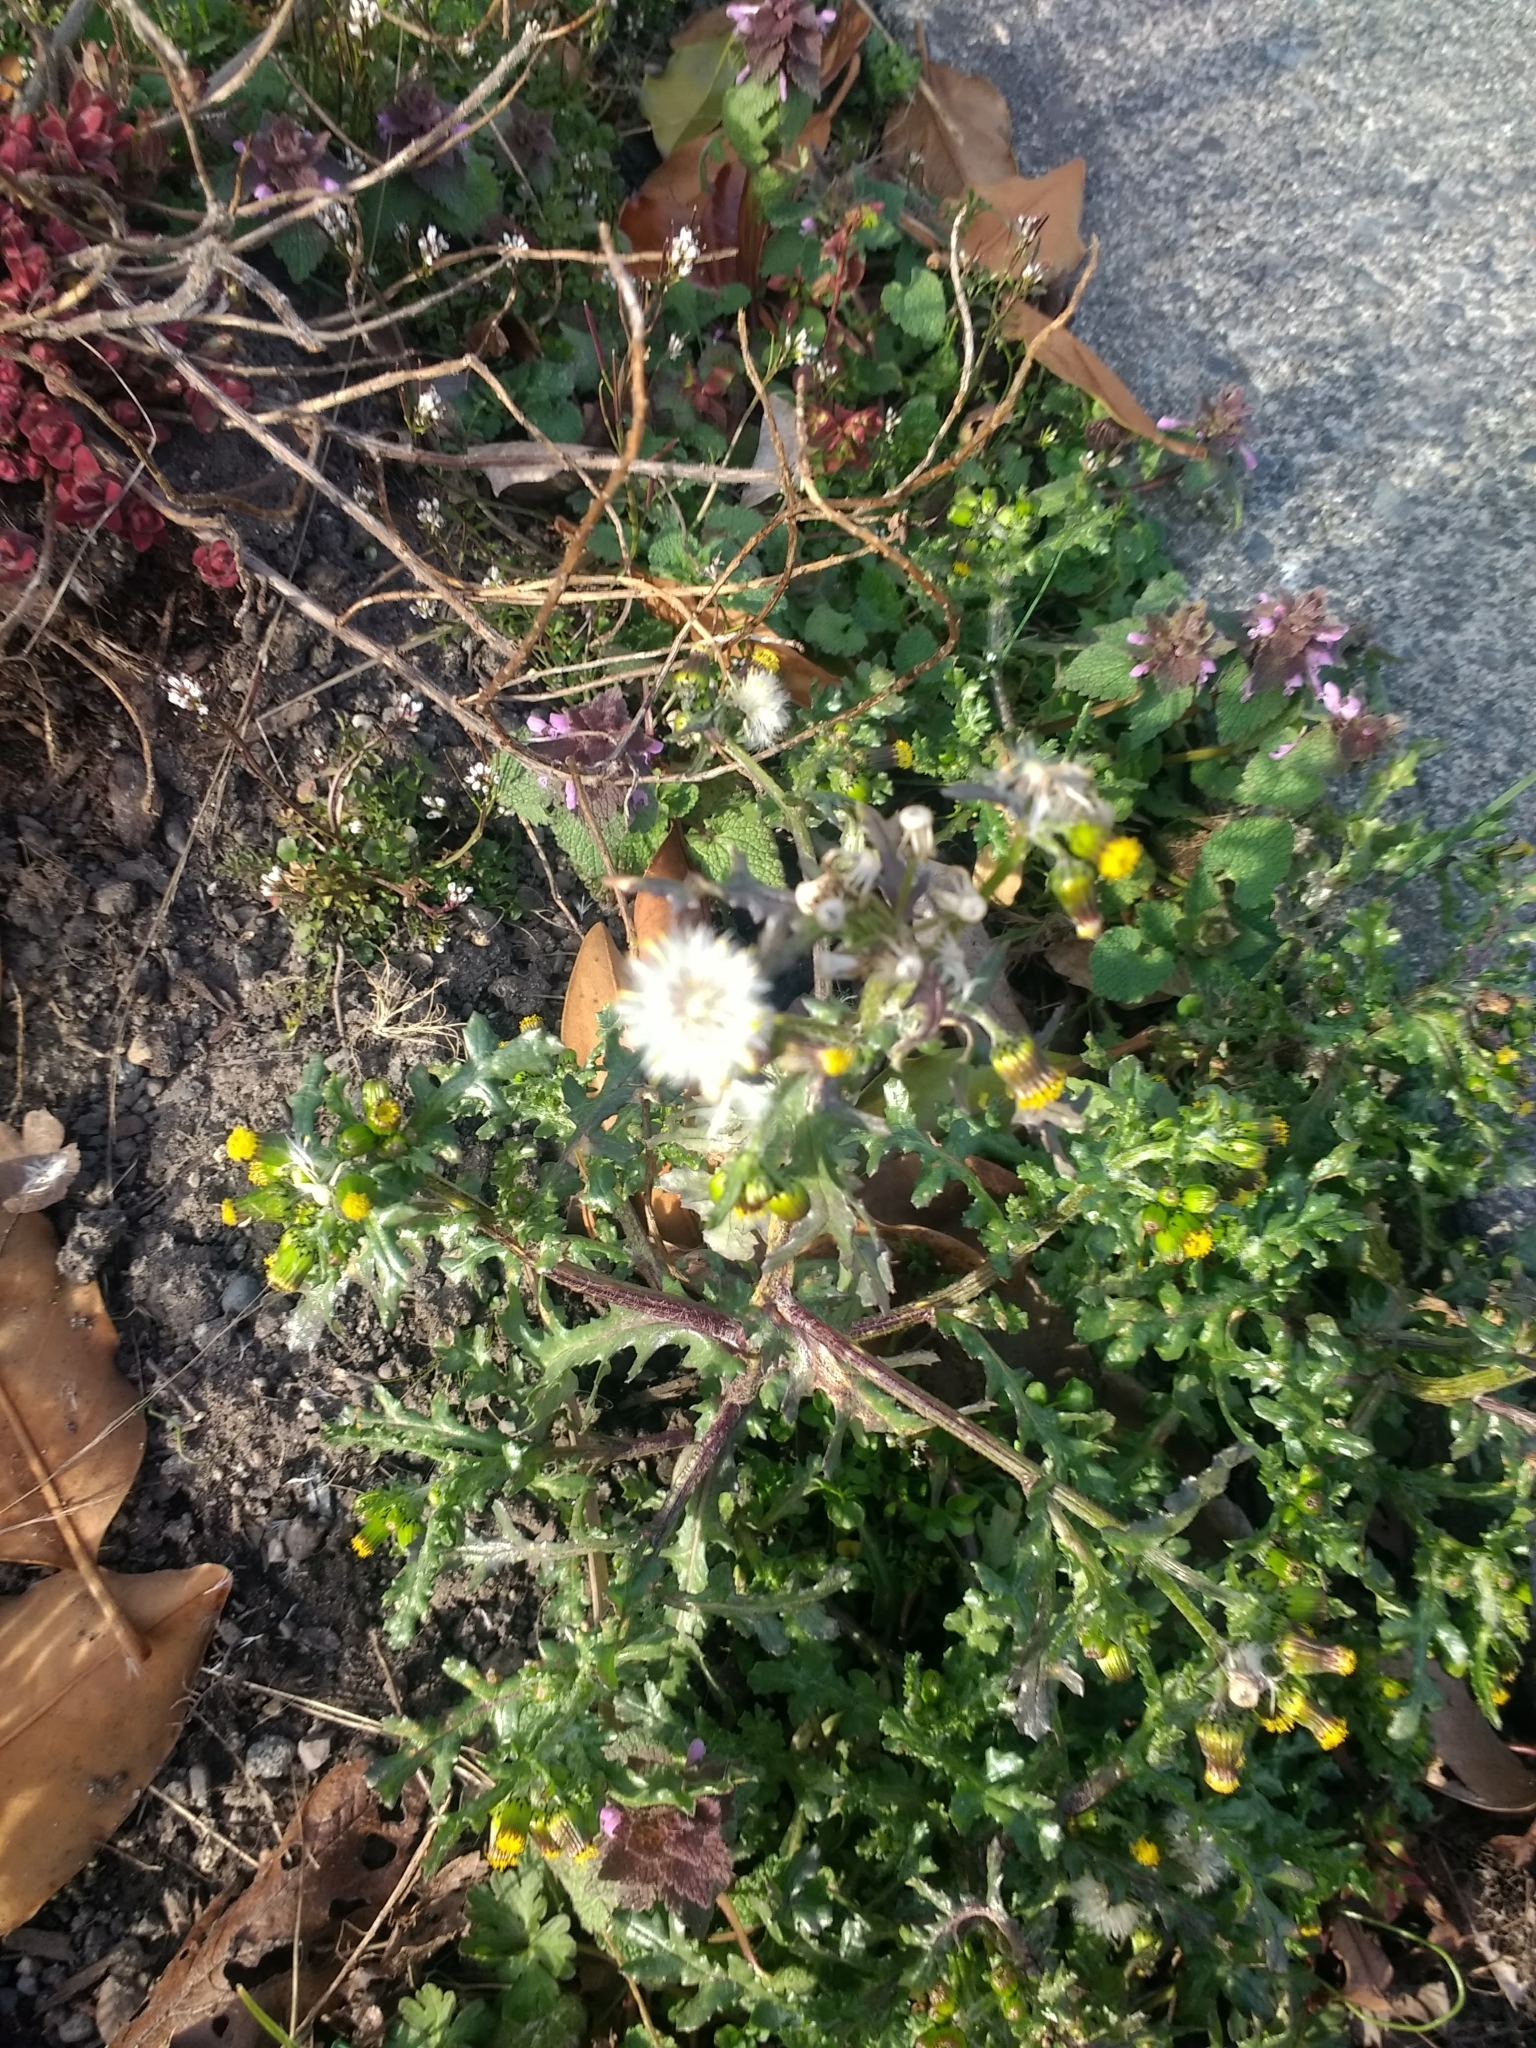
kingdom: Plantae
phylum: Tracheophyta
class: Magnoliopsida
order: Asterales
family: Asteraceae
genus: Senecio
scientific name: Senecio vulgaris
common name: Old-man-in-the-spring
